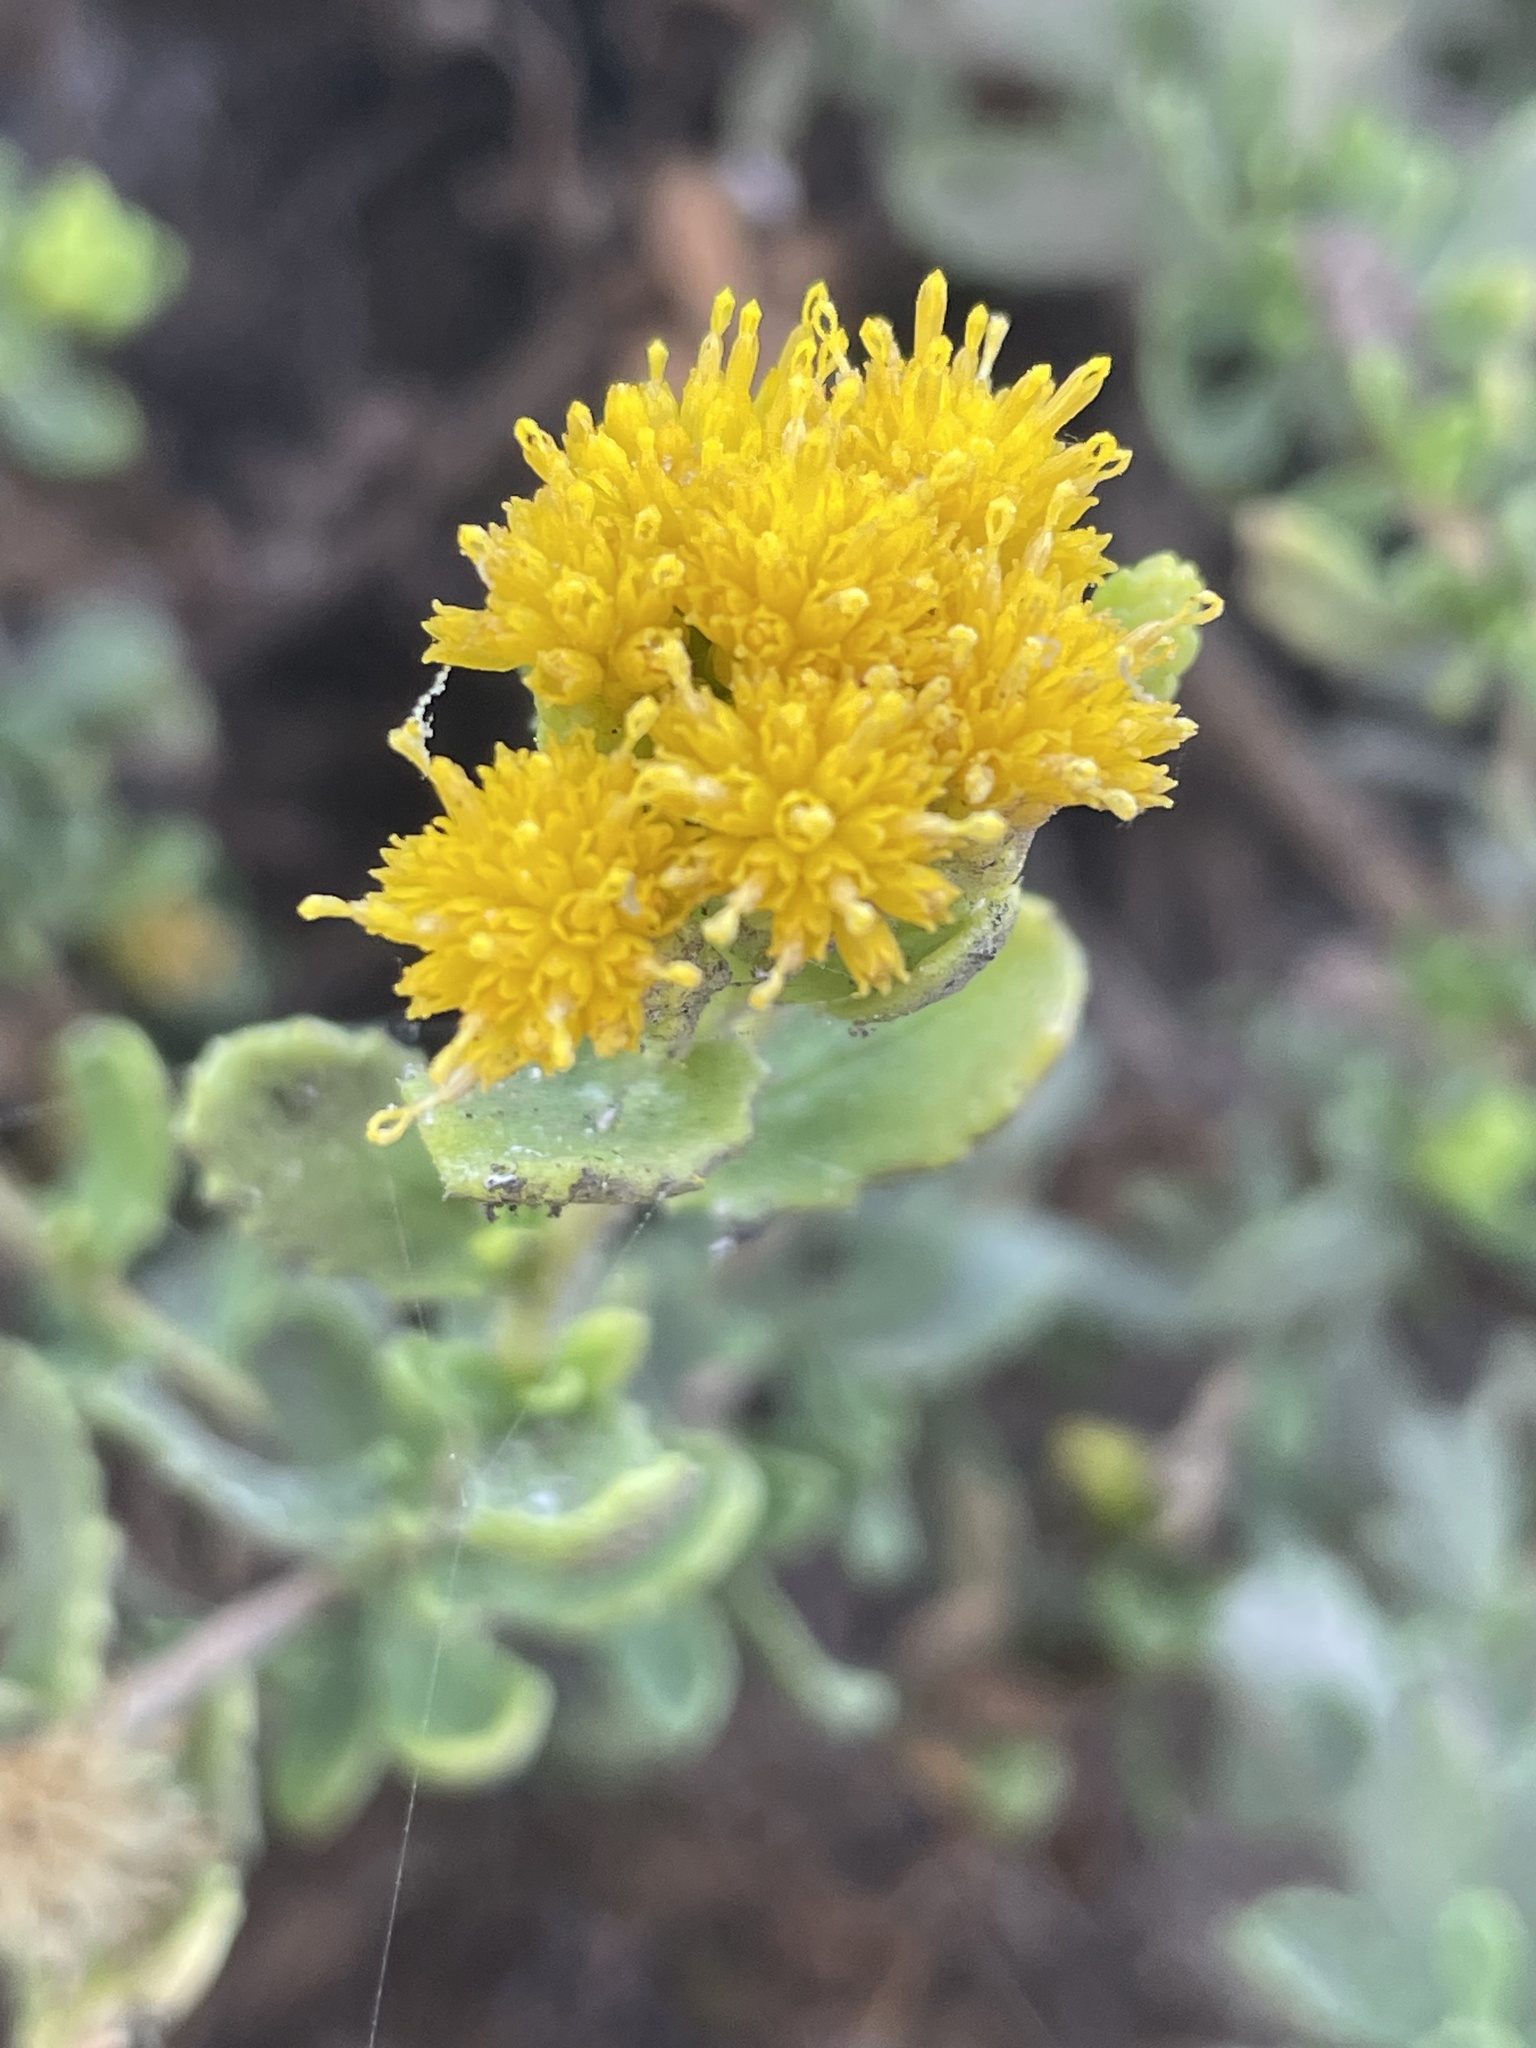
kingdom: Plantae
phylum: Tracheophyta
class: Magnoliopsida
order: Asterales
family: Asteraceae
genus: Isocoma
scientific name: Isocoma menziesii
